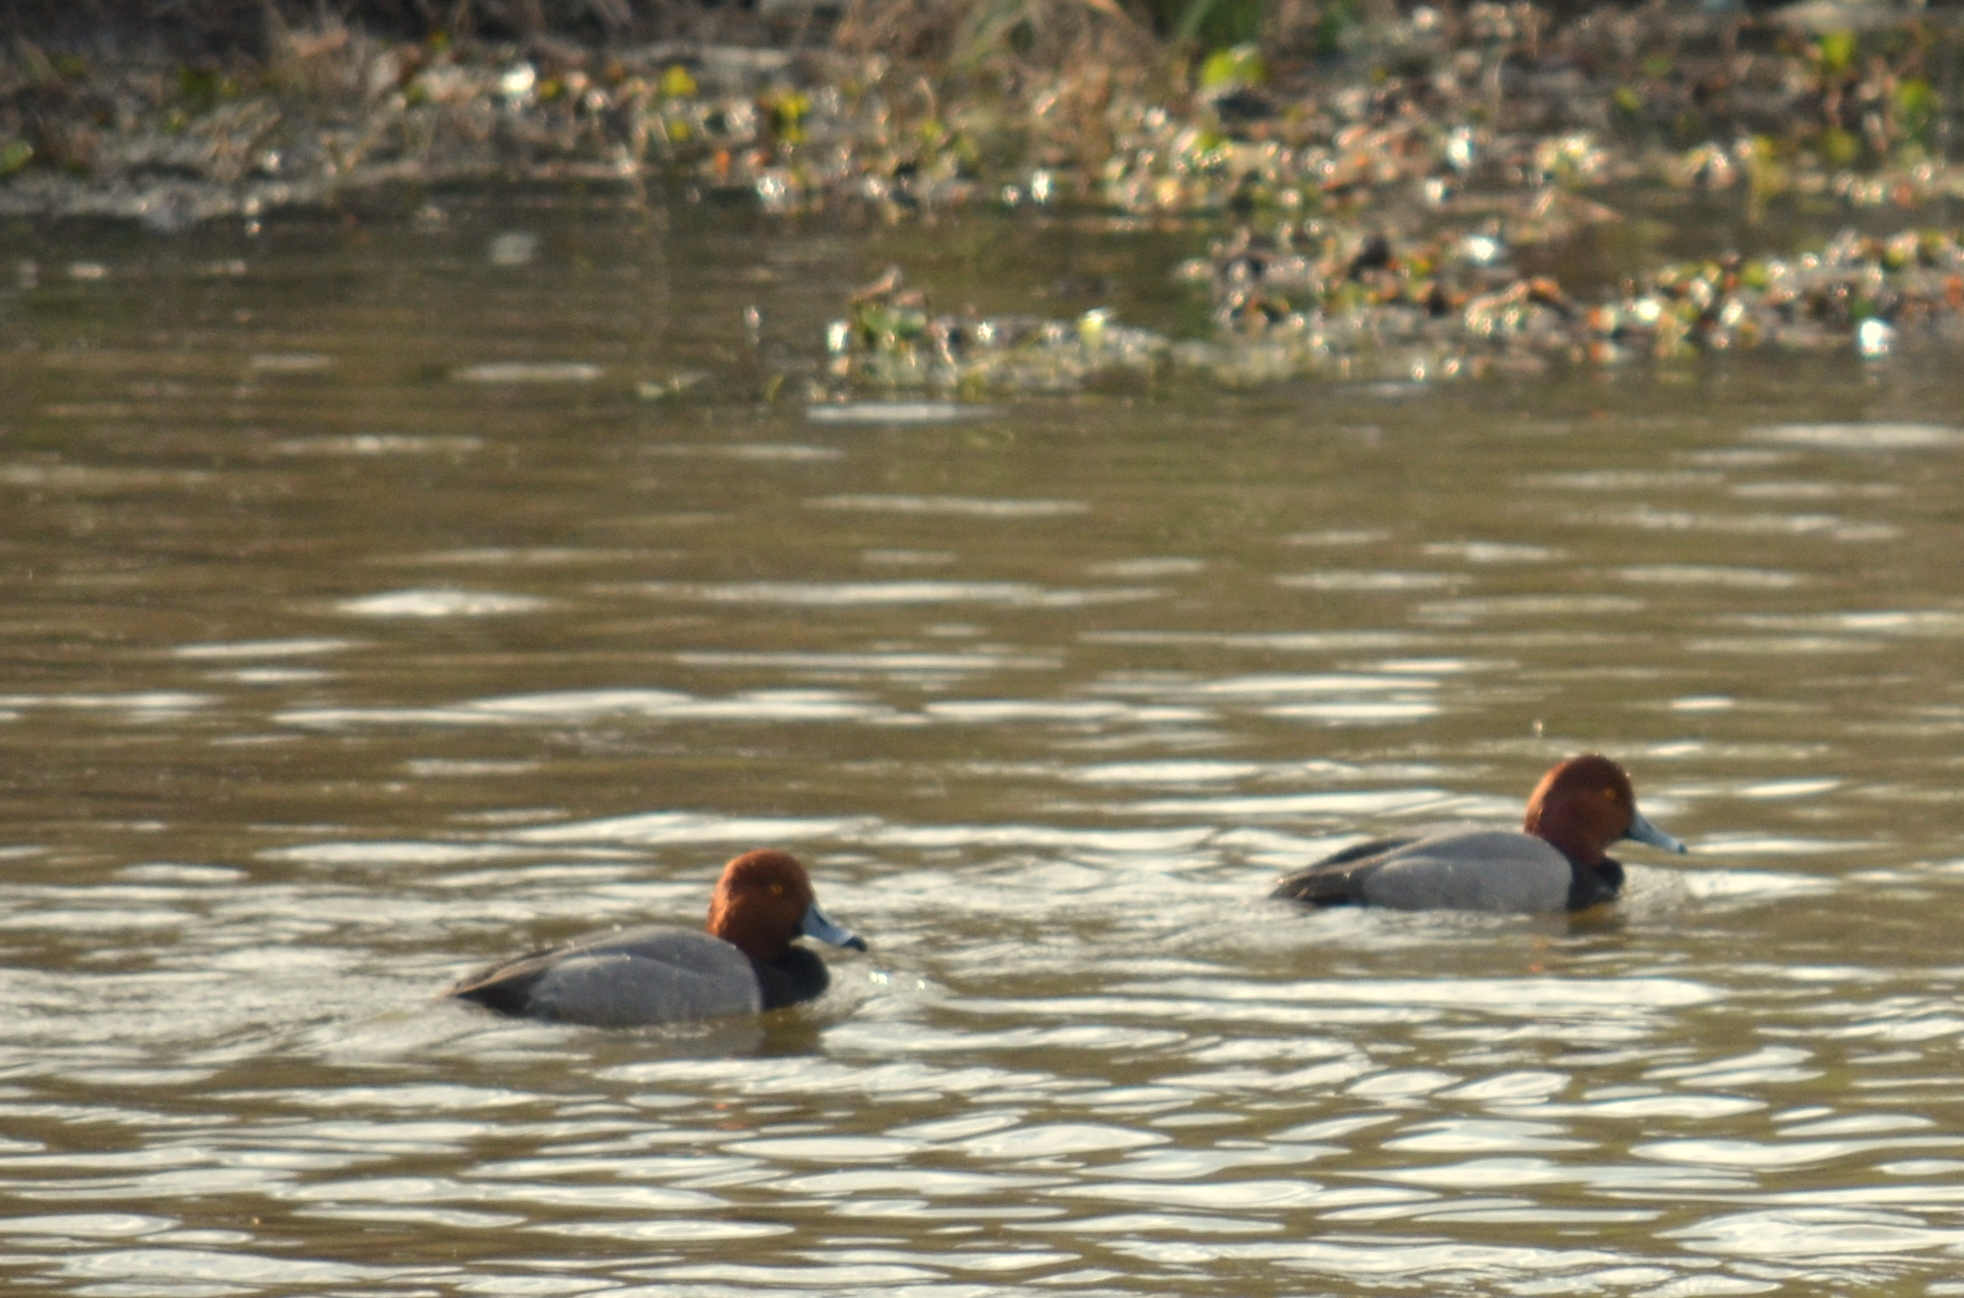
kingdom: Animalia
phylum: Chordata
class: Aves
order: Anseriformes
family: Anatidae
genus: Aythya
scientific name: Aythya americana
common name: Redhead
